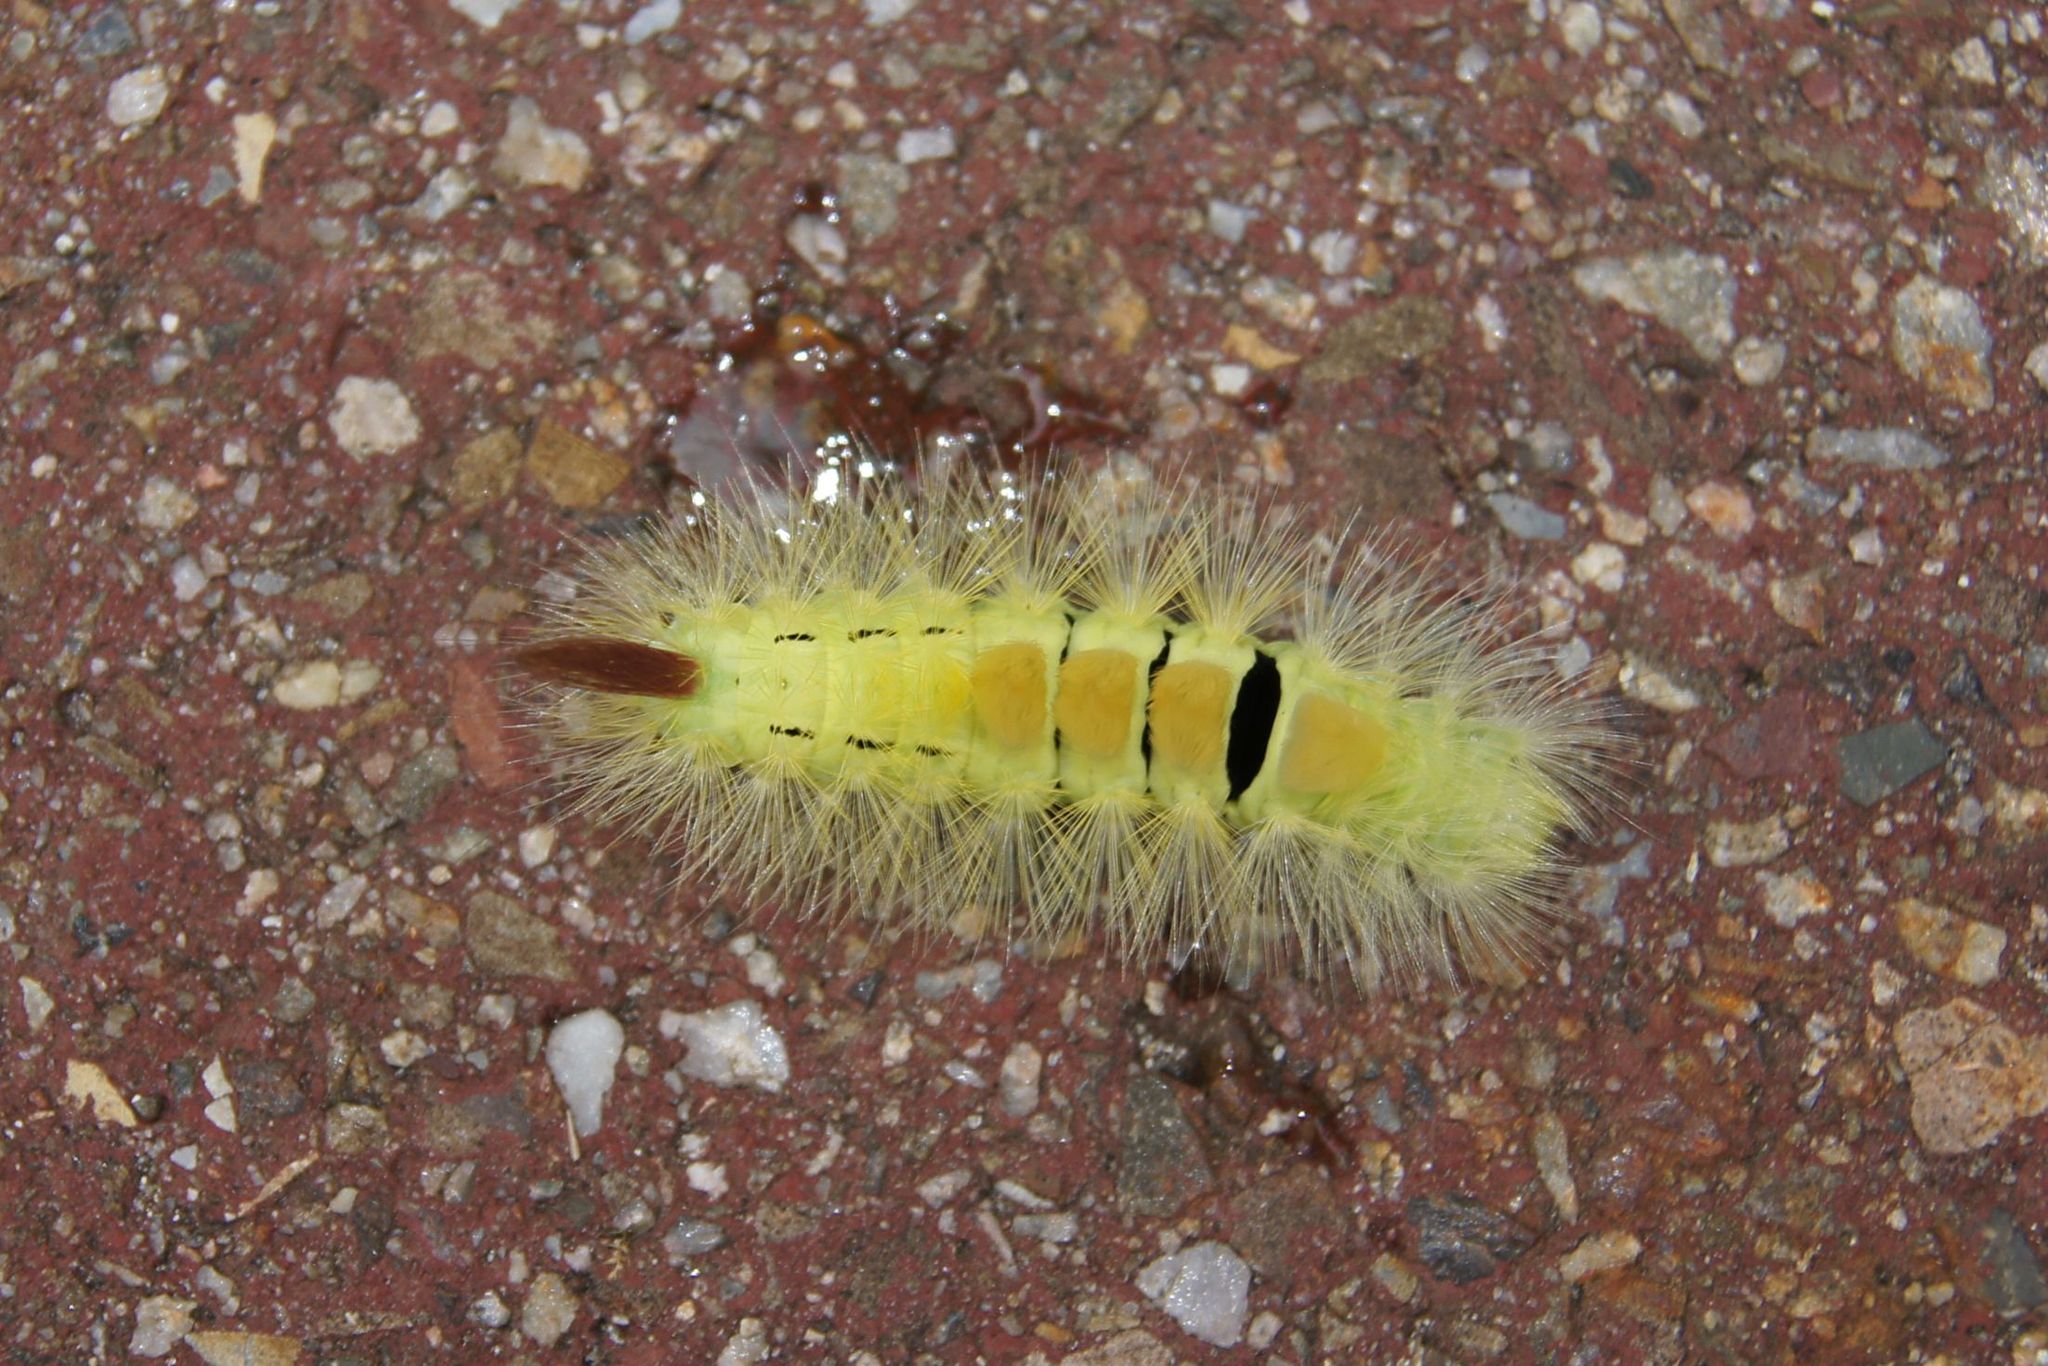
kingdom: Animalia
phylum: Arthropoda
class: Insecta
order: Lepidoptera
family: Erebidae
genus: Calliteara
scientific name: Calliteara pudibunda
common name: Pale tussock
